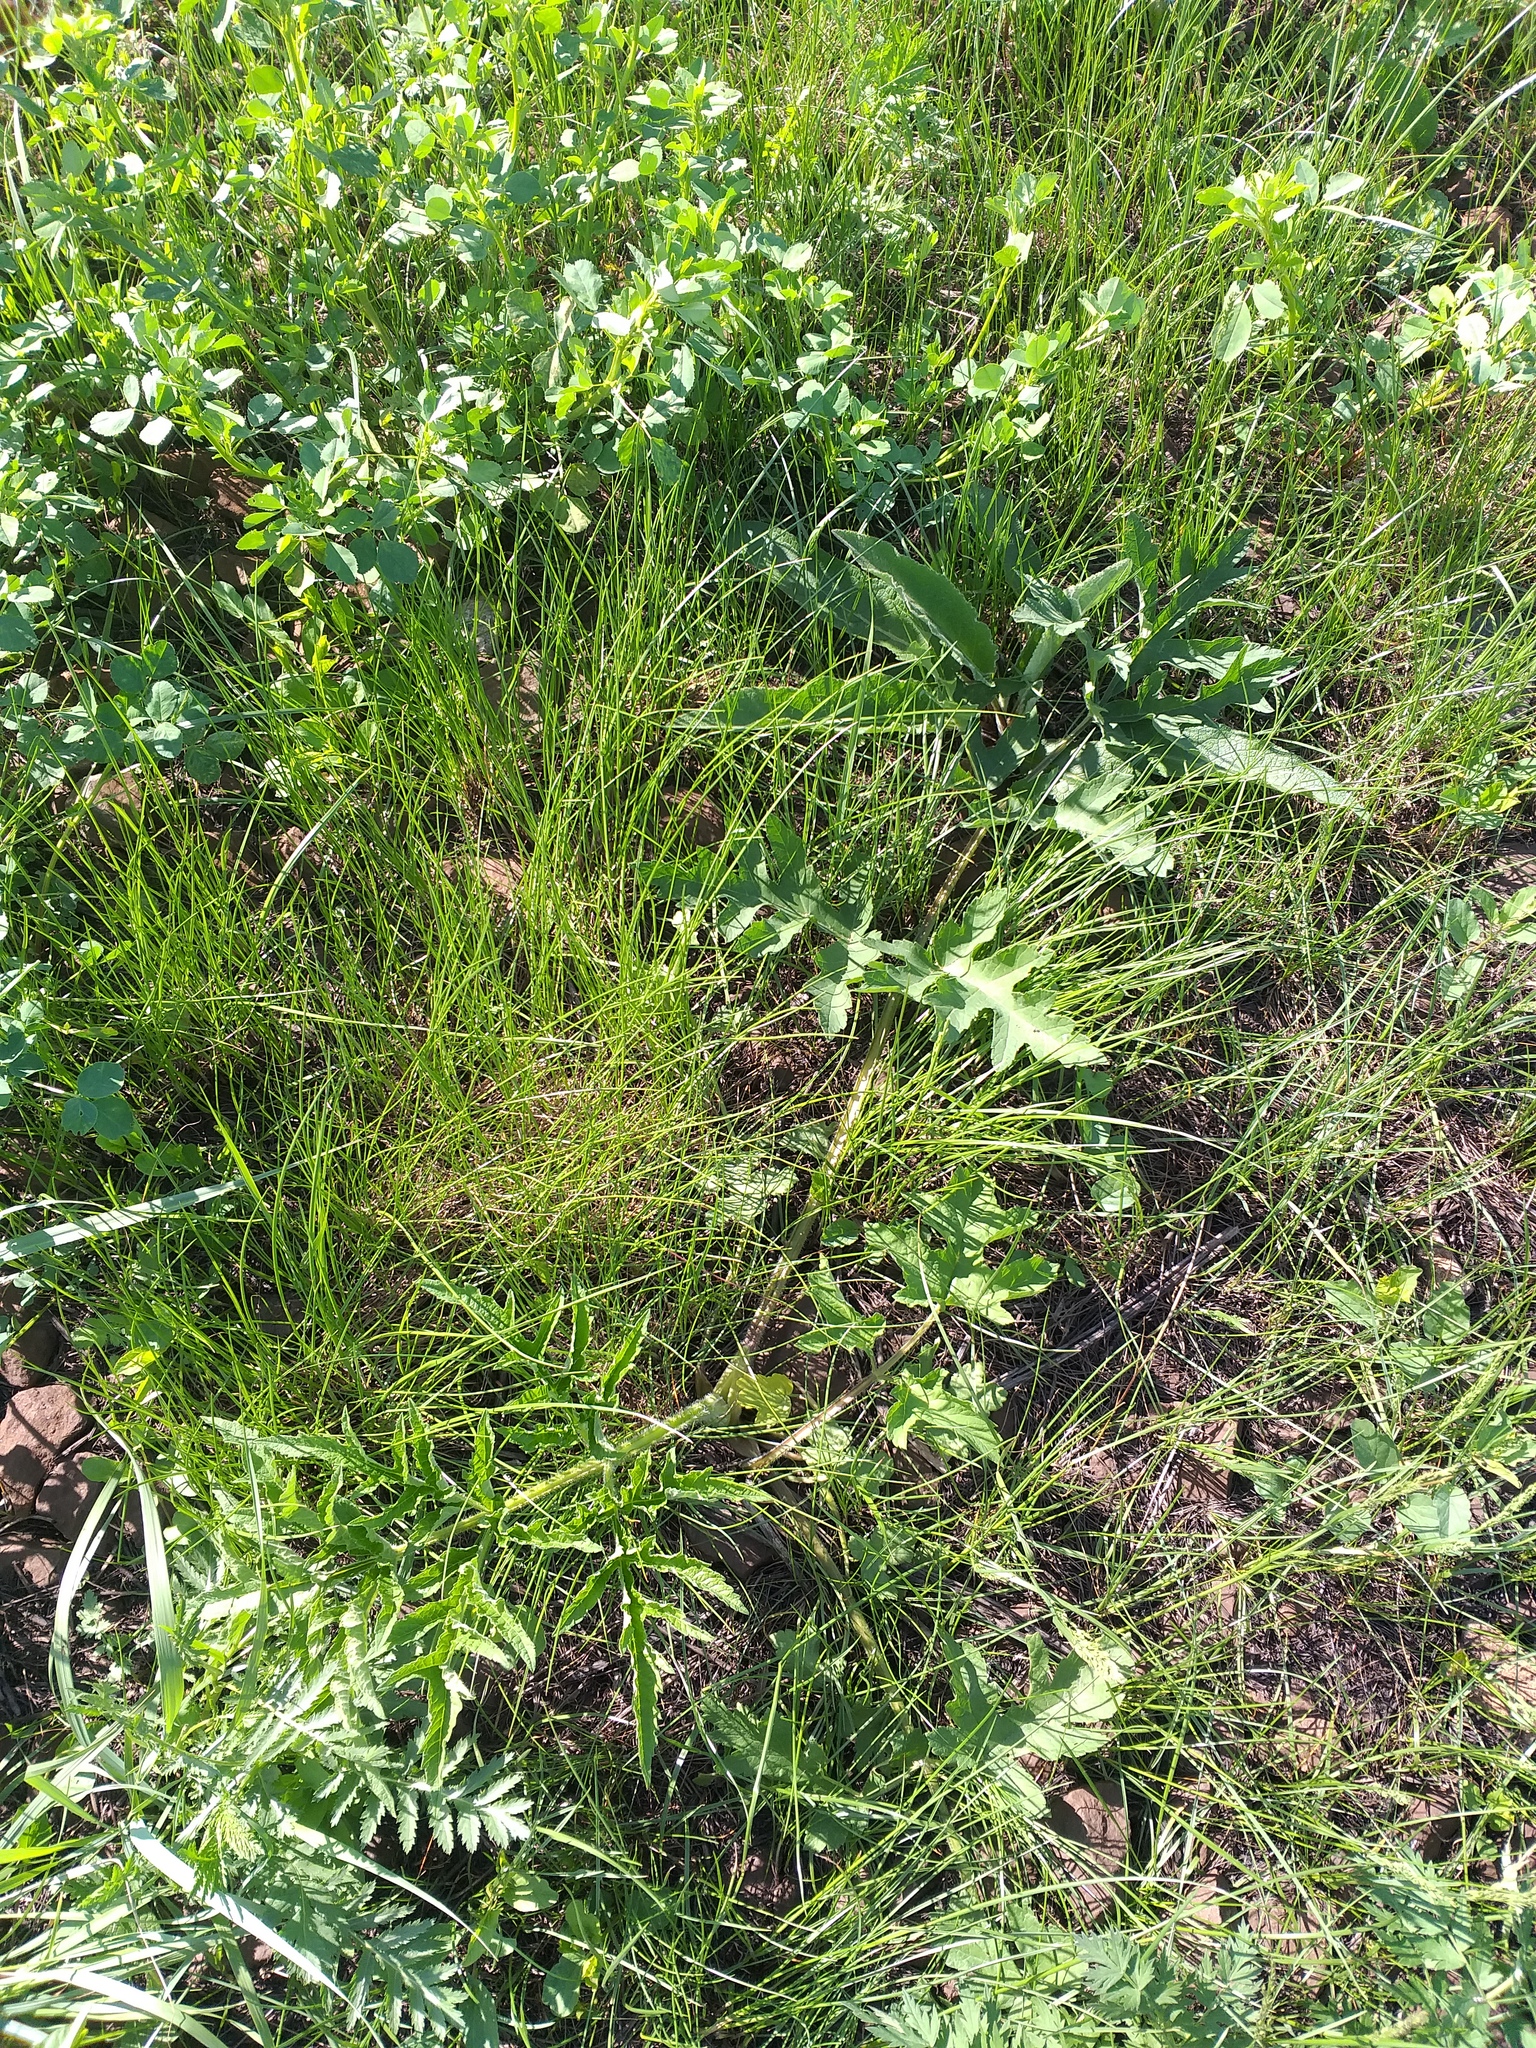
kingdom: Plantae
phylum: Tracheophyta
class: Magnoliopsida
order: Apiales
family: Apiaceae
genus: Heracleum
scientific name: Heracleum sphondylium
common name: Hogweed
